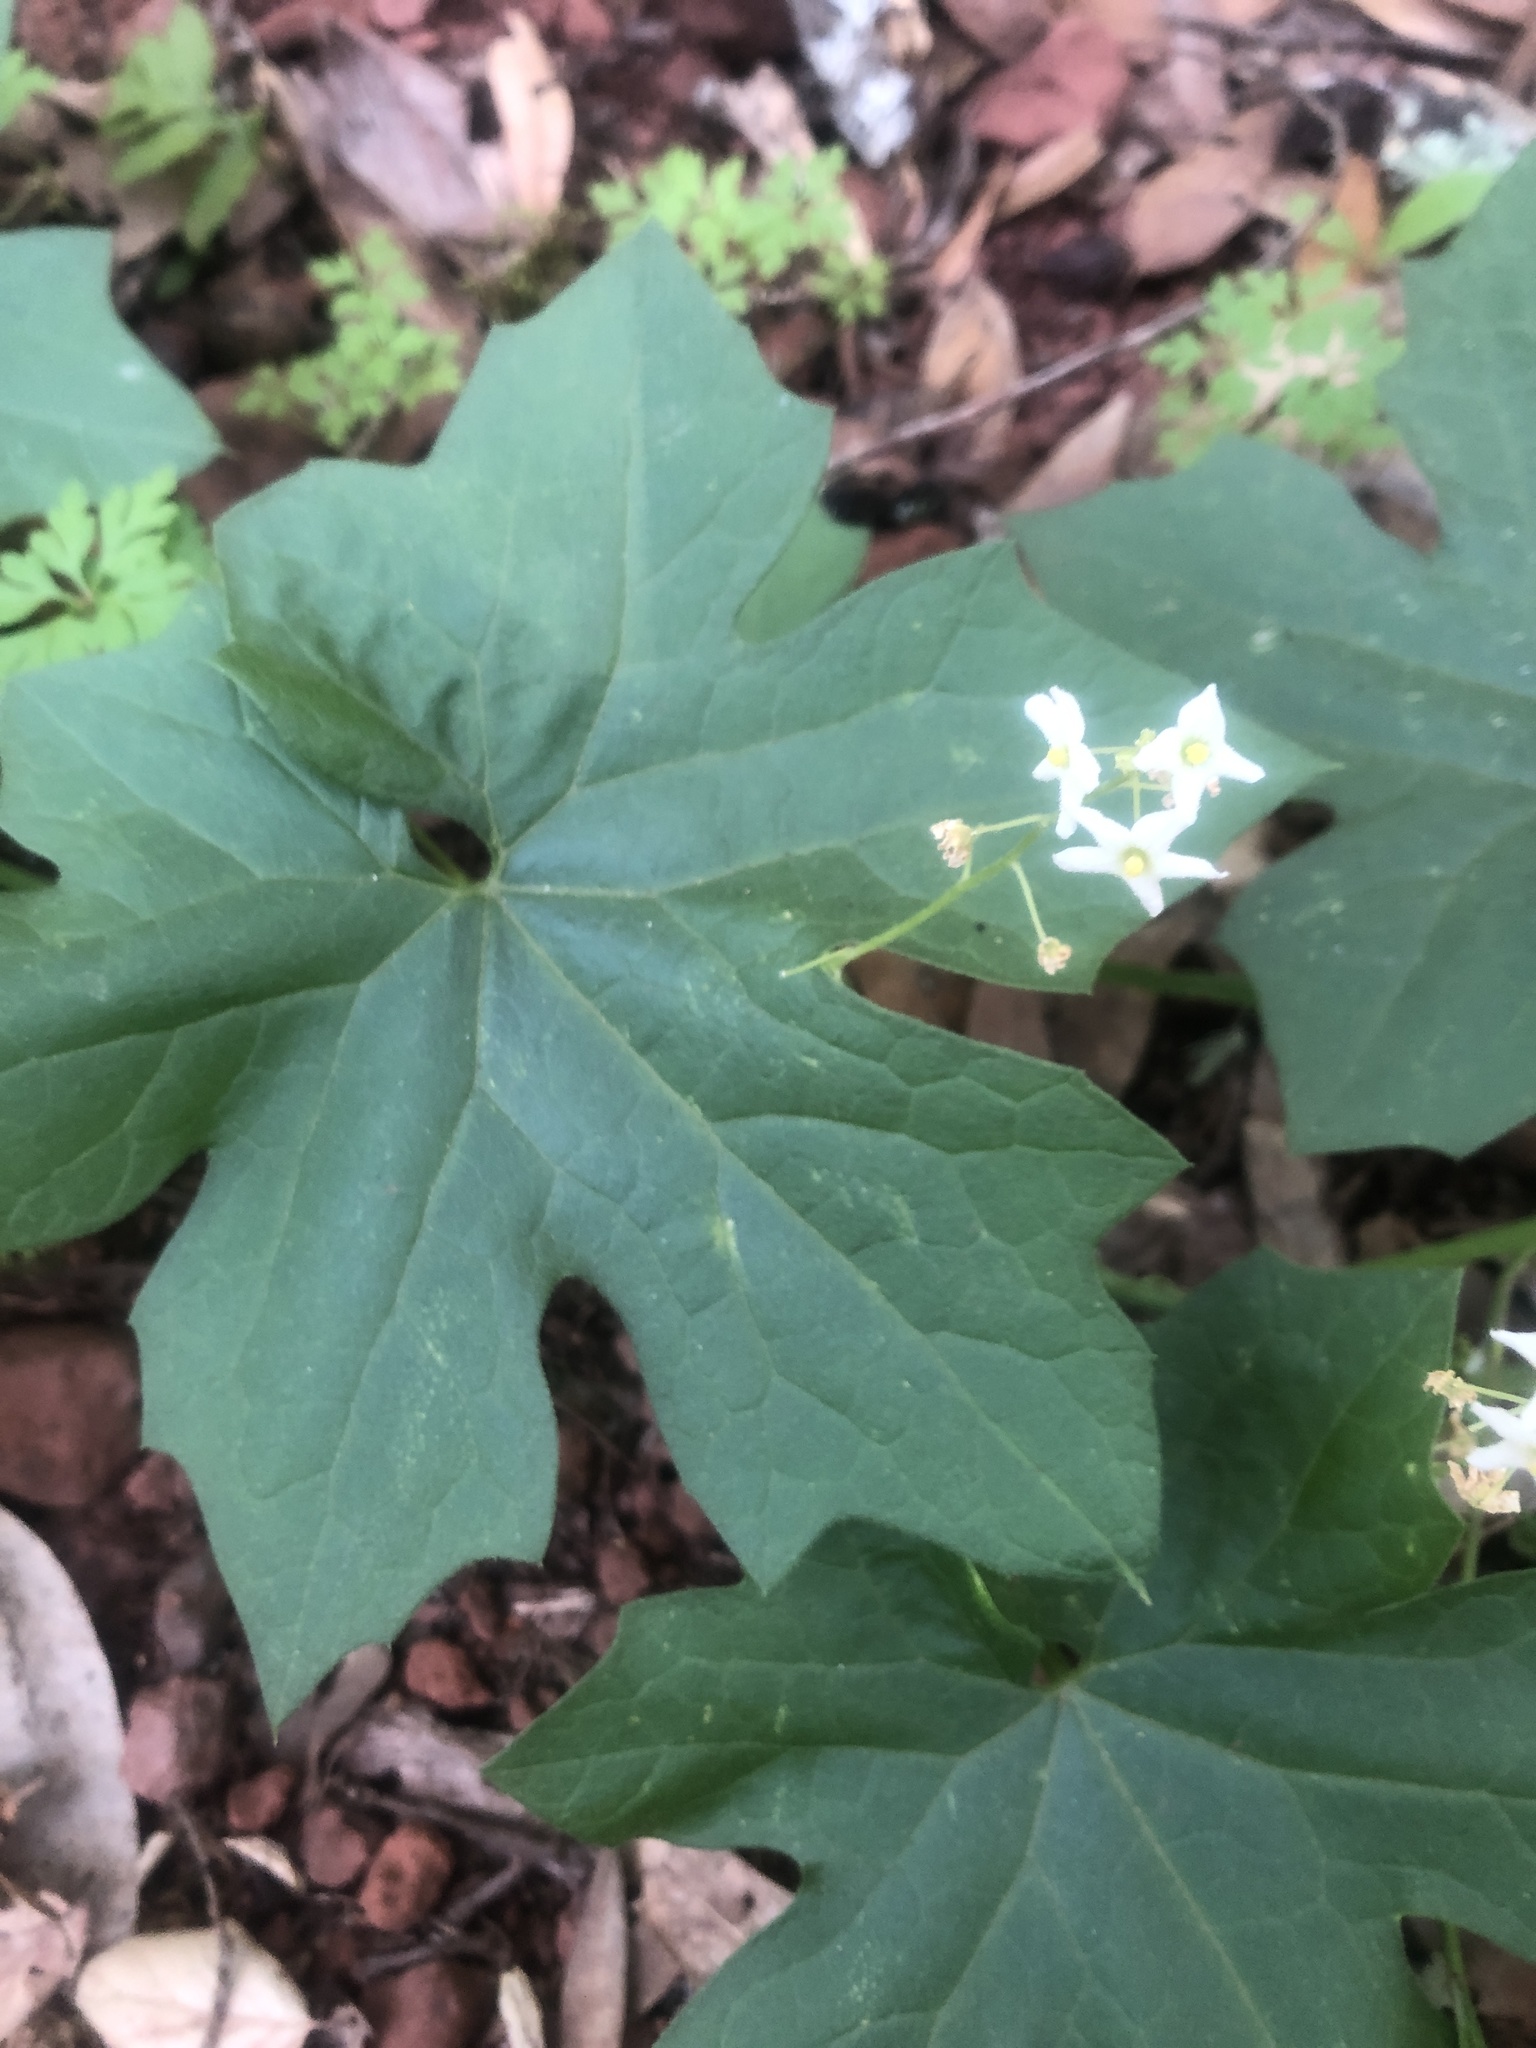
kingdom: Plantae
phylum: Tracheophyta
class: Magnoliopsida
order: Cucurbitales
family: Cucurbitaceae
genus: Marah
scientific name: Marah fabacea
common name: California manroot
